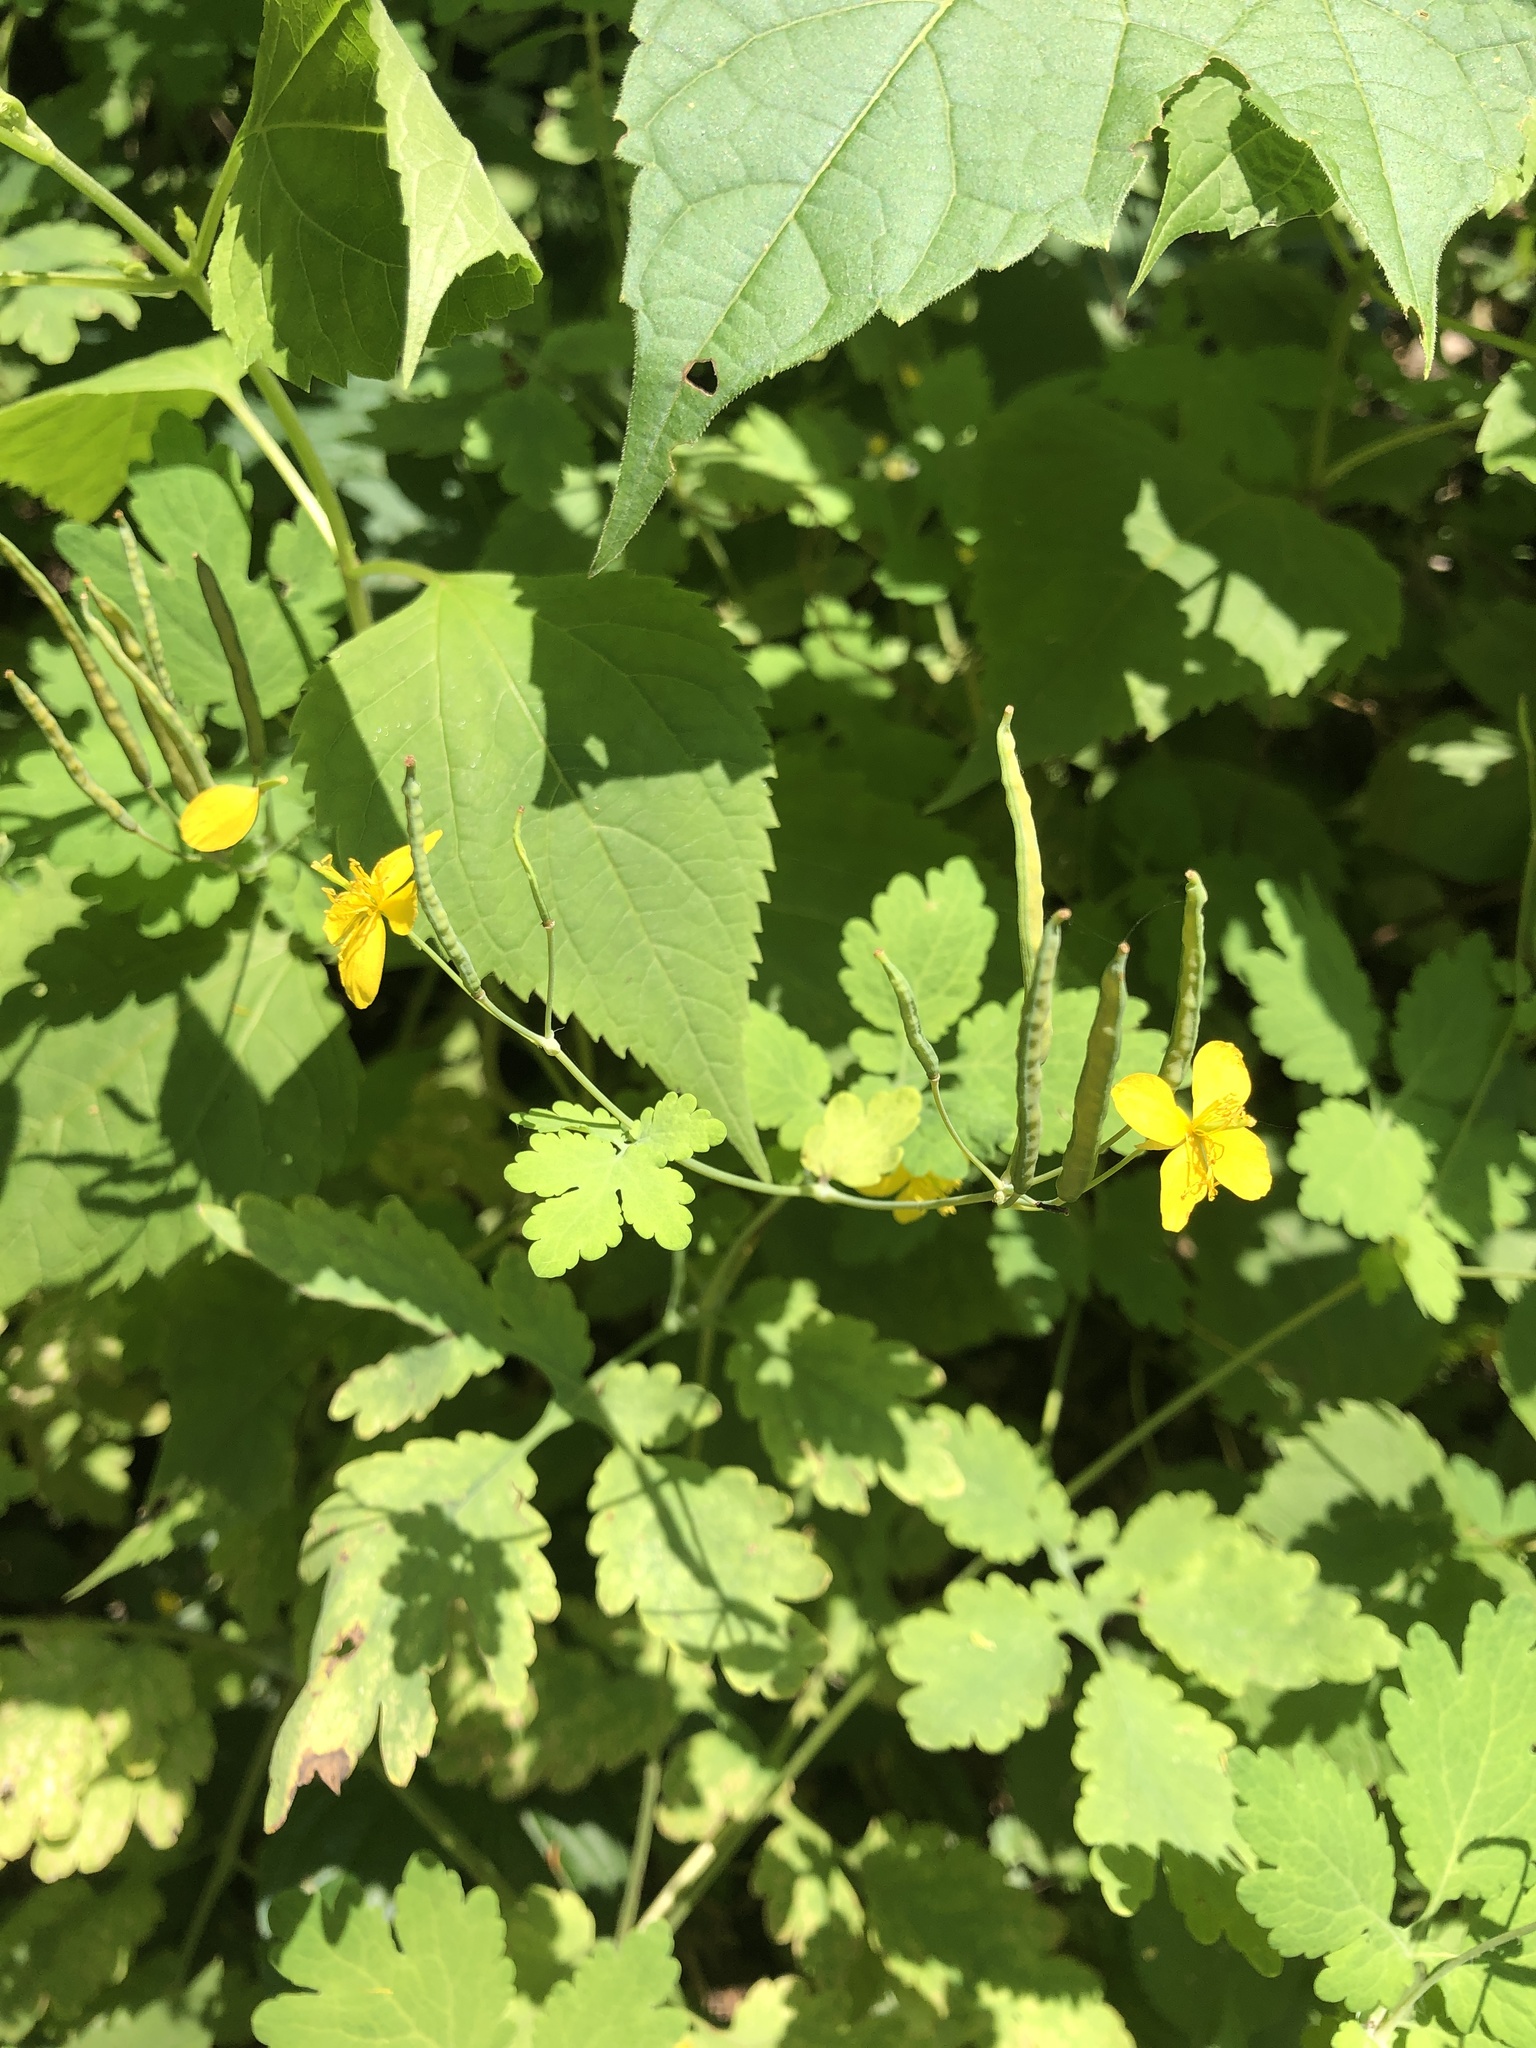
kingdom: Plantae
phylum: Tracheophyta
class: Magnoliopsida
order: Ranunculales
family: Papaveraceae
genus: Chelidonium
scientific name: Chelidonium majus
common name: Greater celandine
